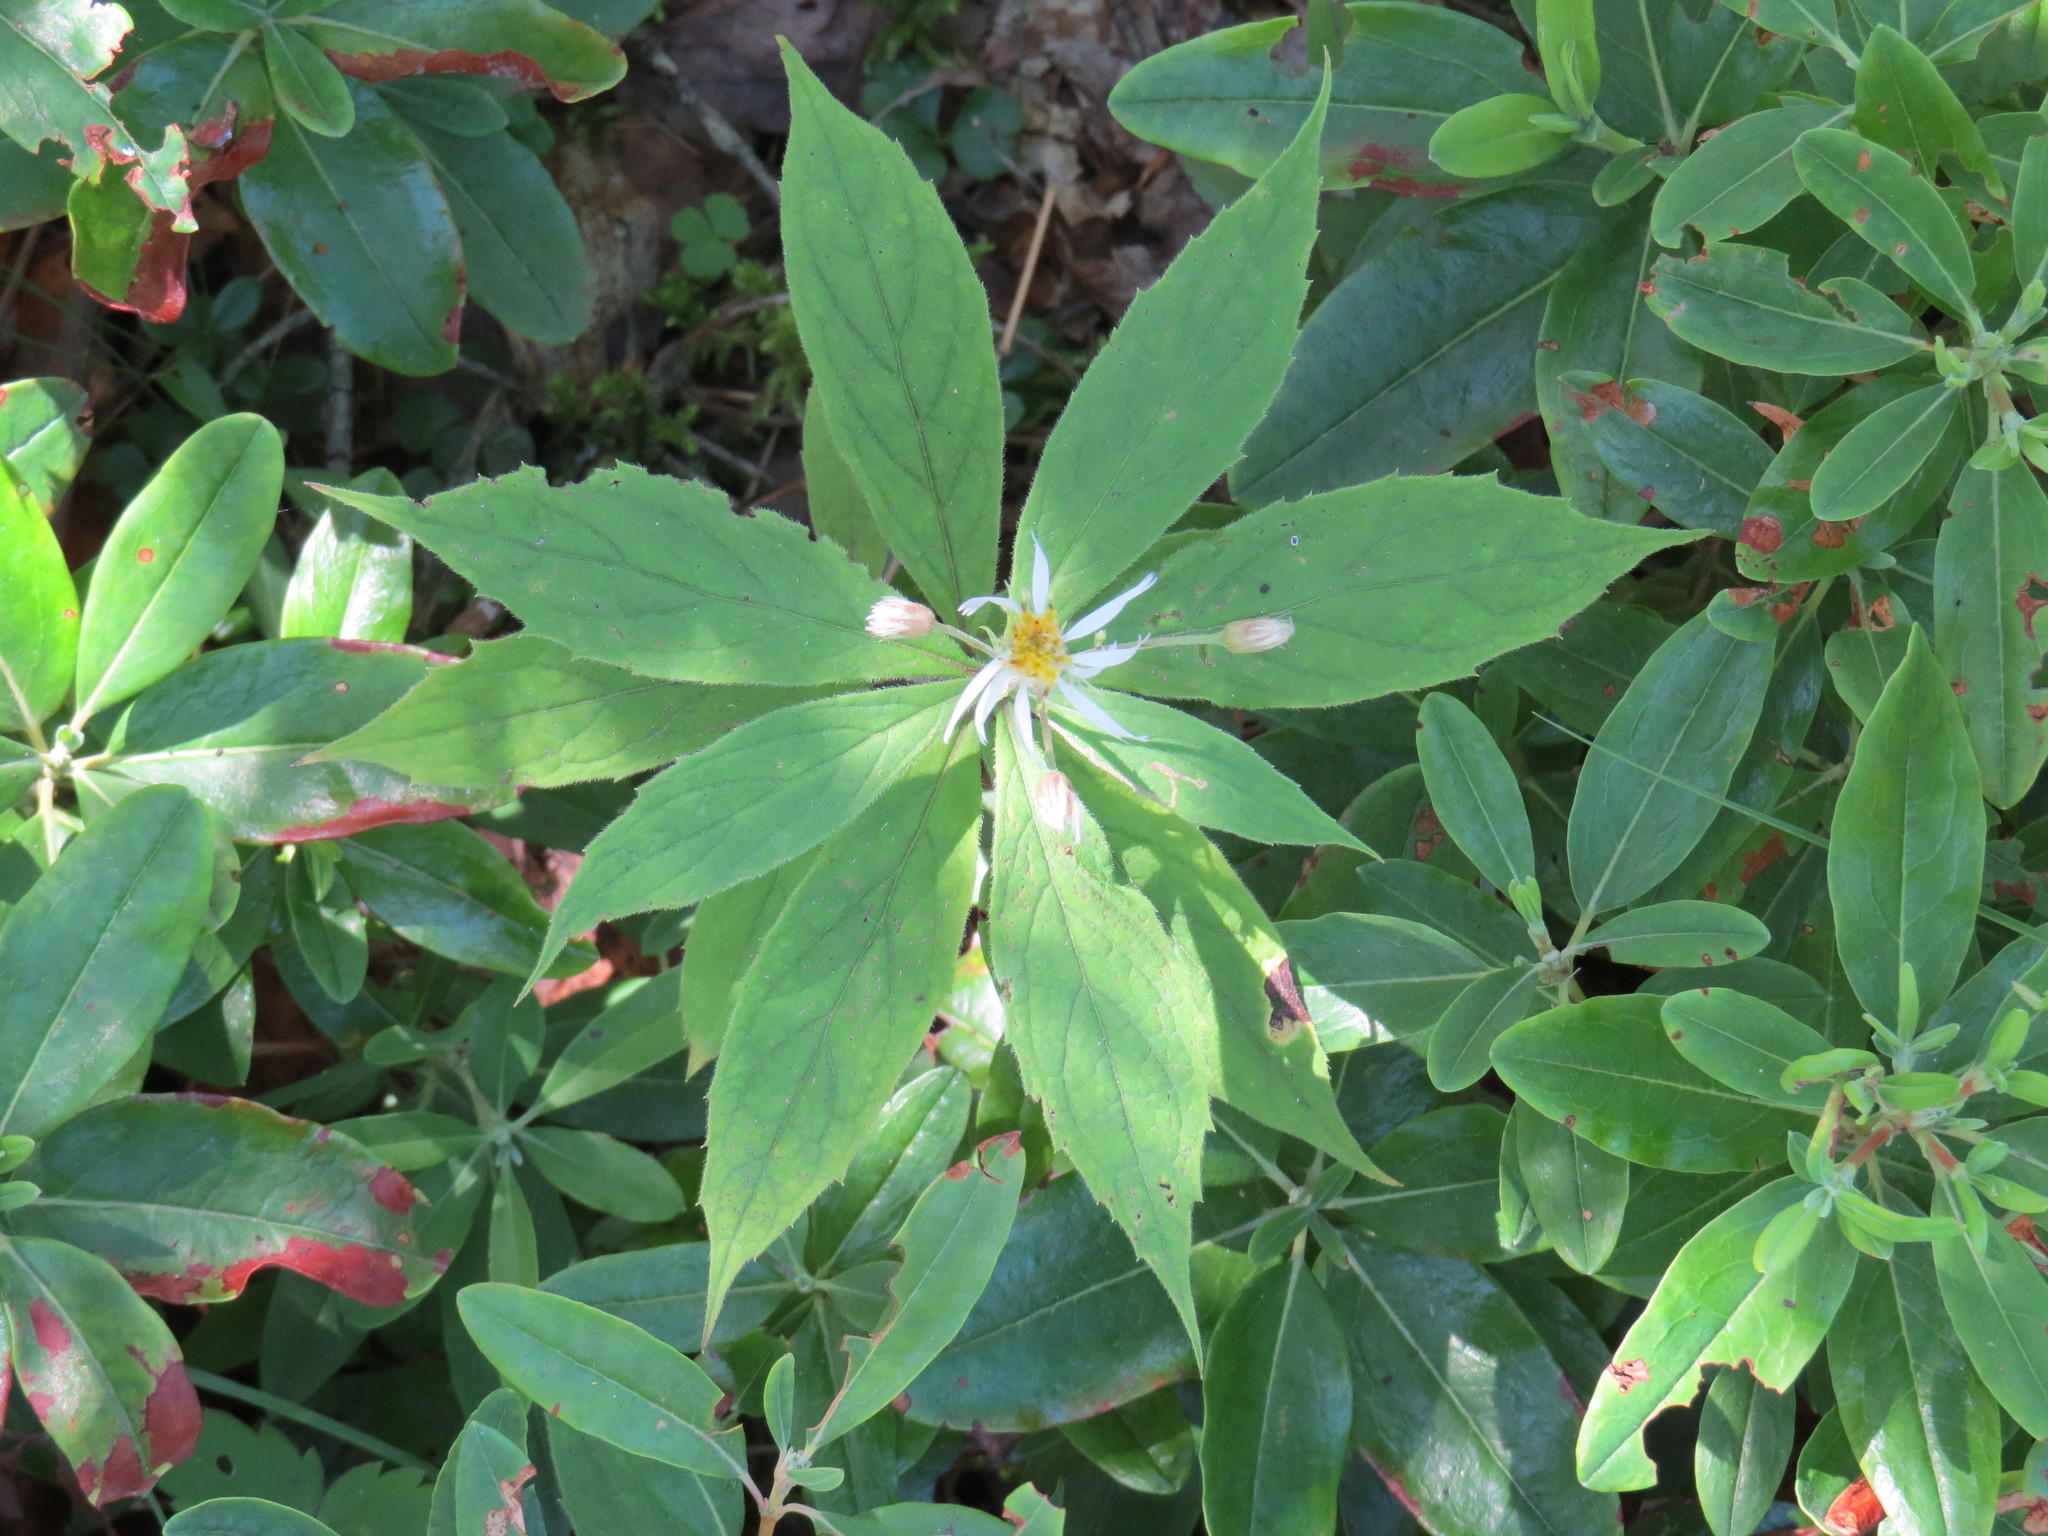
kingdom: Plantae
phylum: Tracheophyta
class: Magnoliopsida
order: Asterales
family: Asteraceae
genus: Oclemena
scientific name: Oclemena acuminata
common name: Mountain aster
